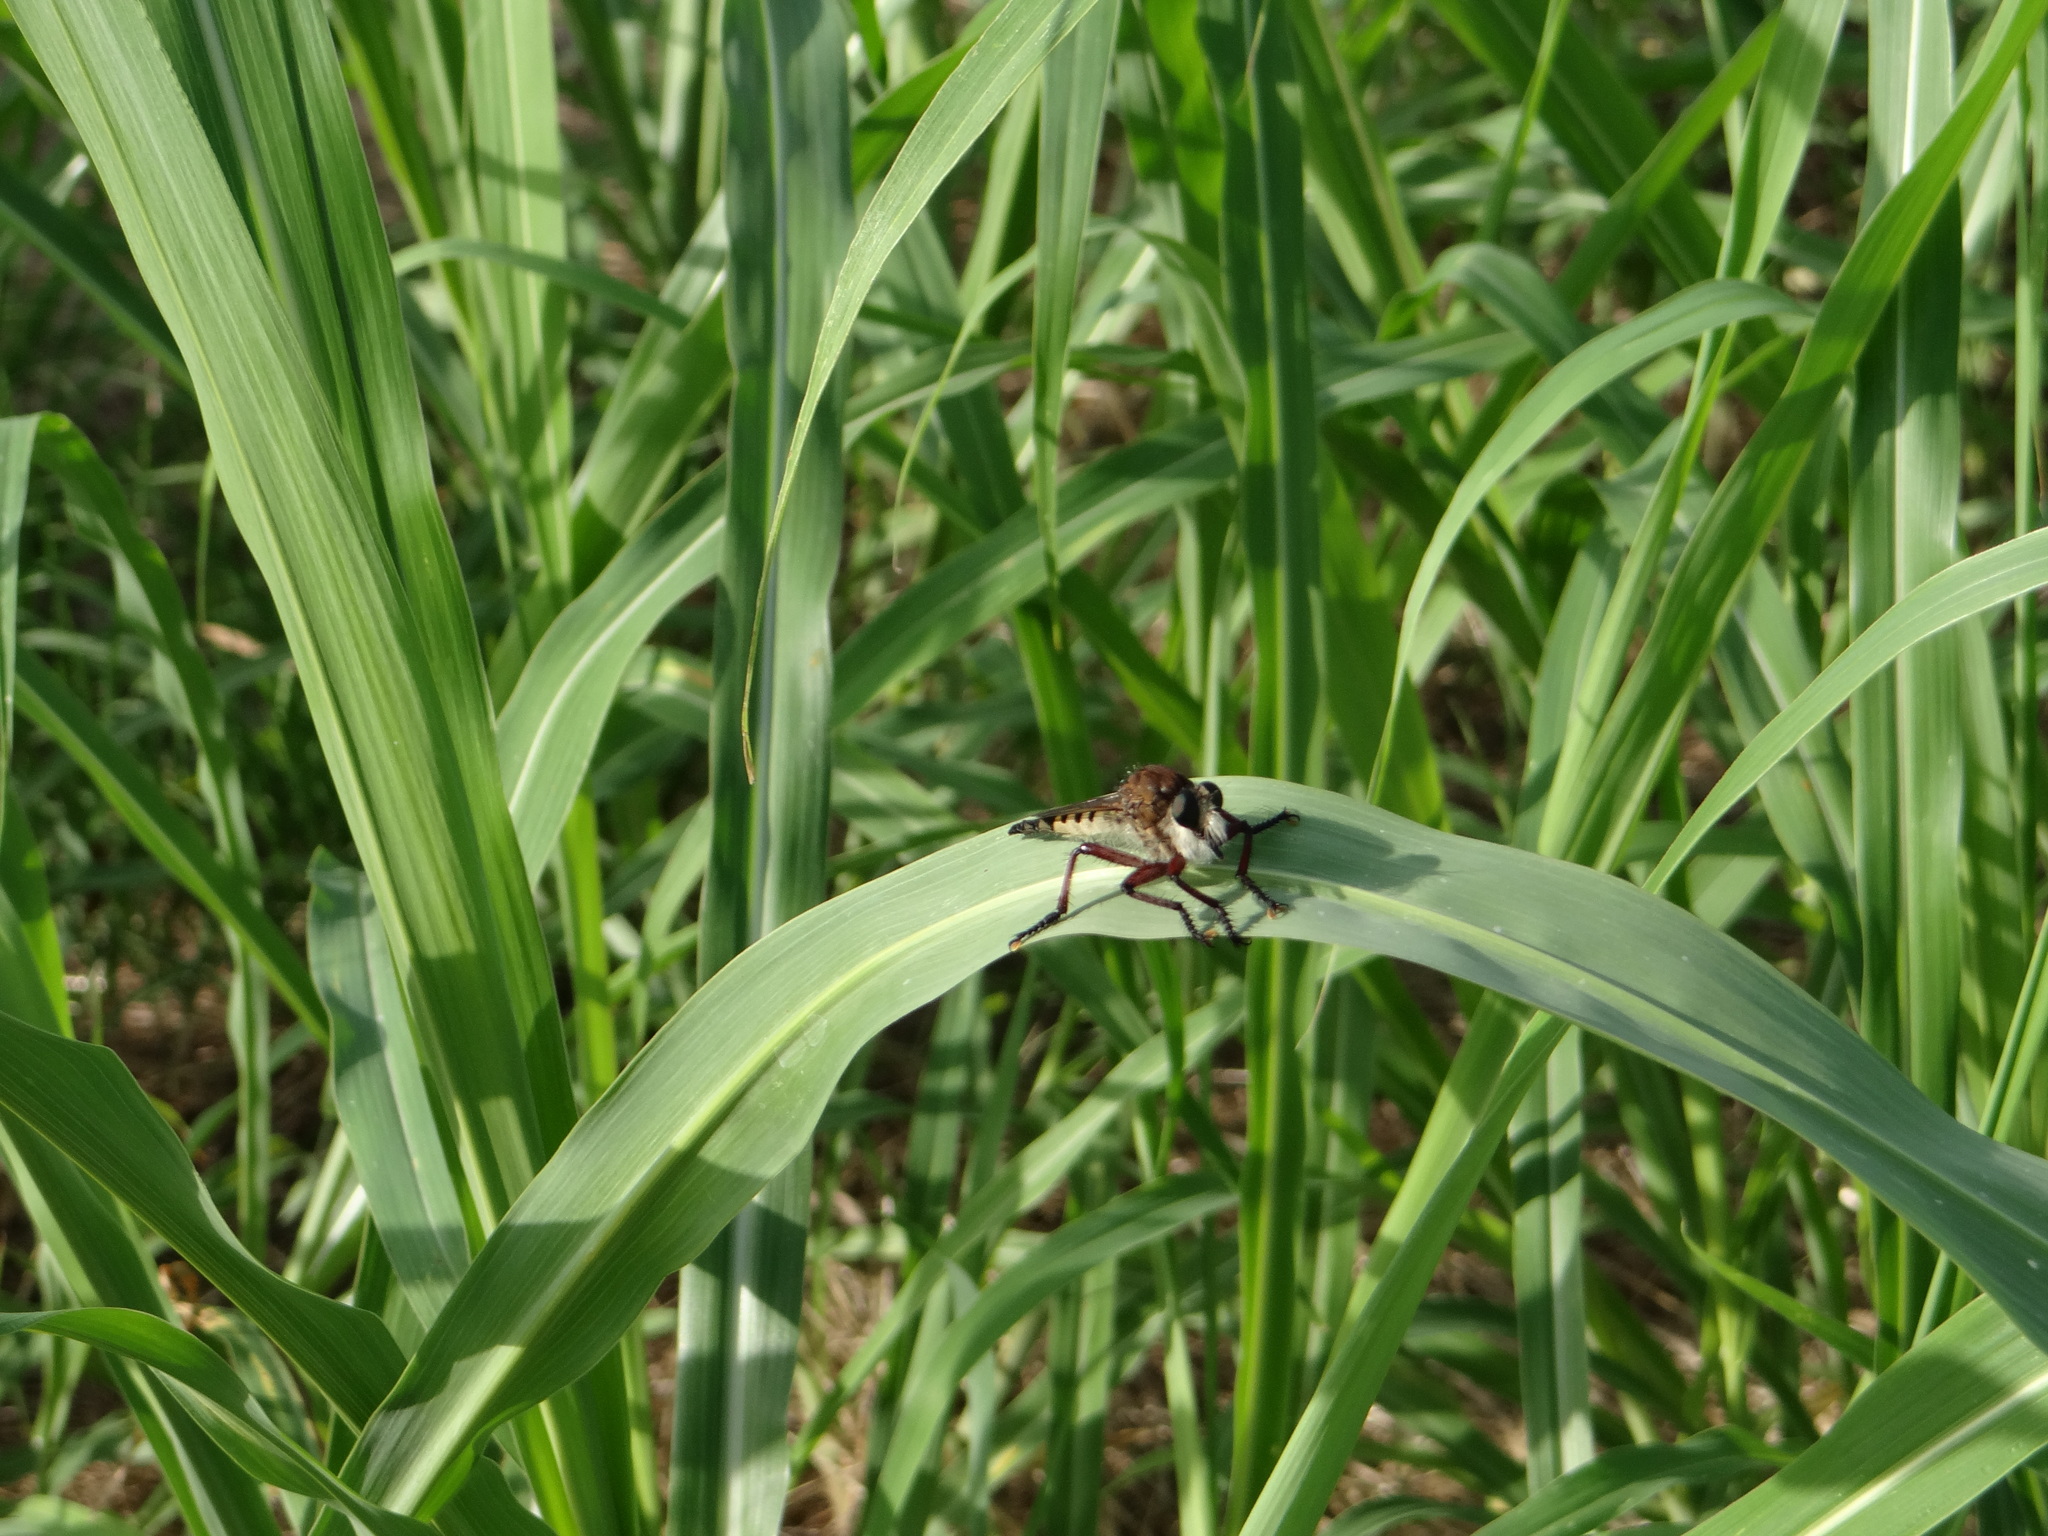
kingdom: Animalia
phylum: Arthropoda
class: Insecta
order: Diptera
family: Asilidae
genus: Promachus
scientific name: Promachus hinei
